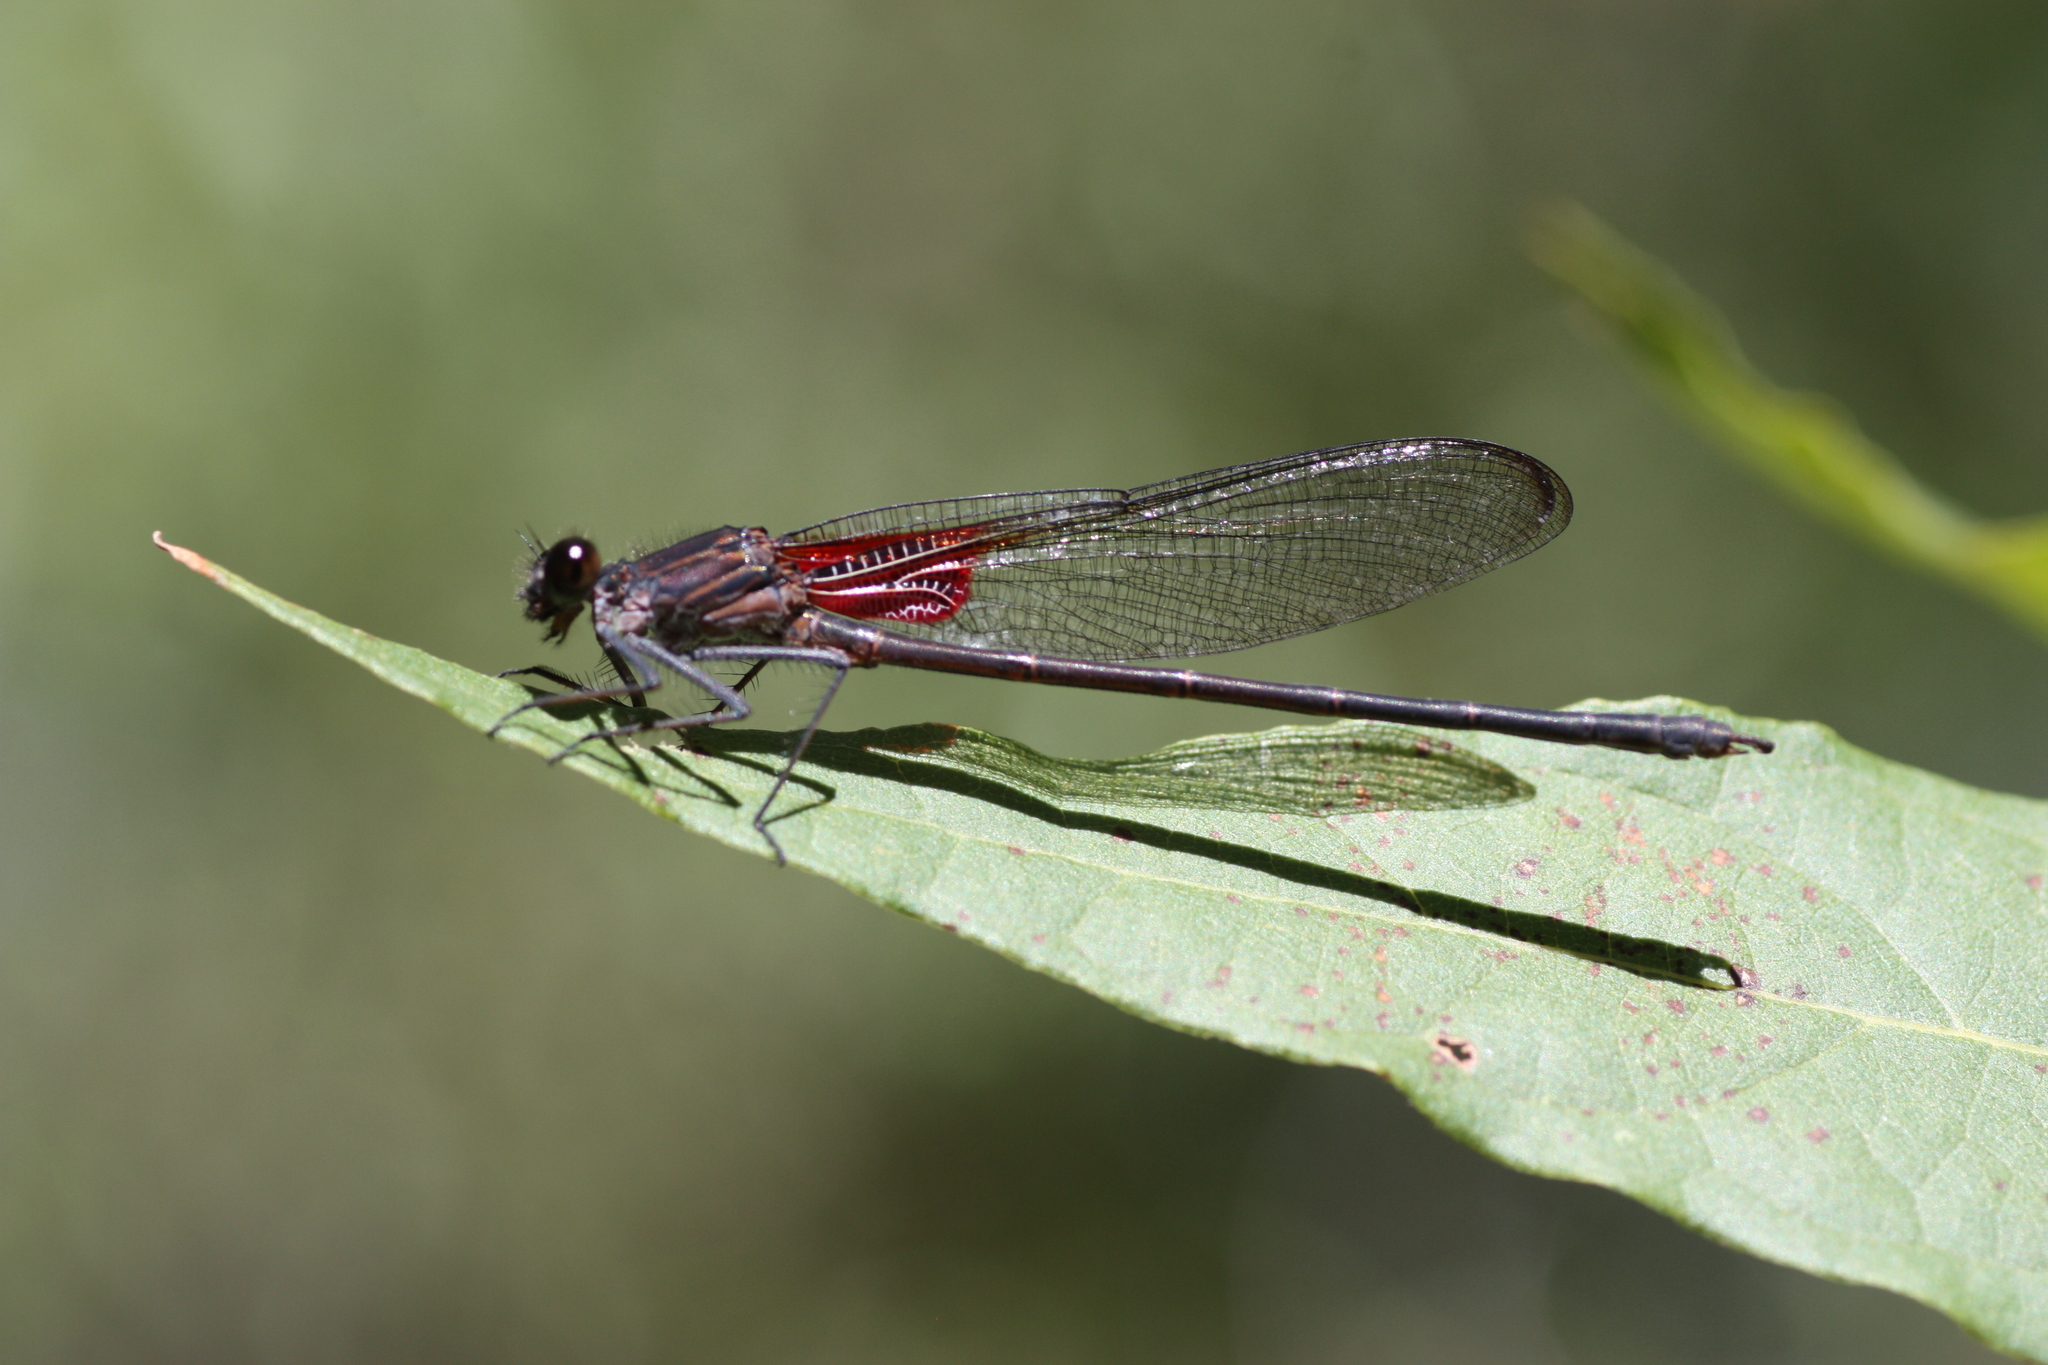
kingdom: Animalia
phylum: Arthropoda
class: Insecta
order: Odonata
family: Calopterygidae
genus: Hetaerina
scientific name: Hetaerina vulnerata
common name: Canyon rubyspot
